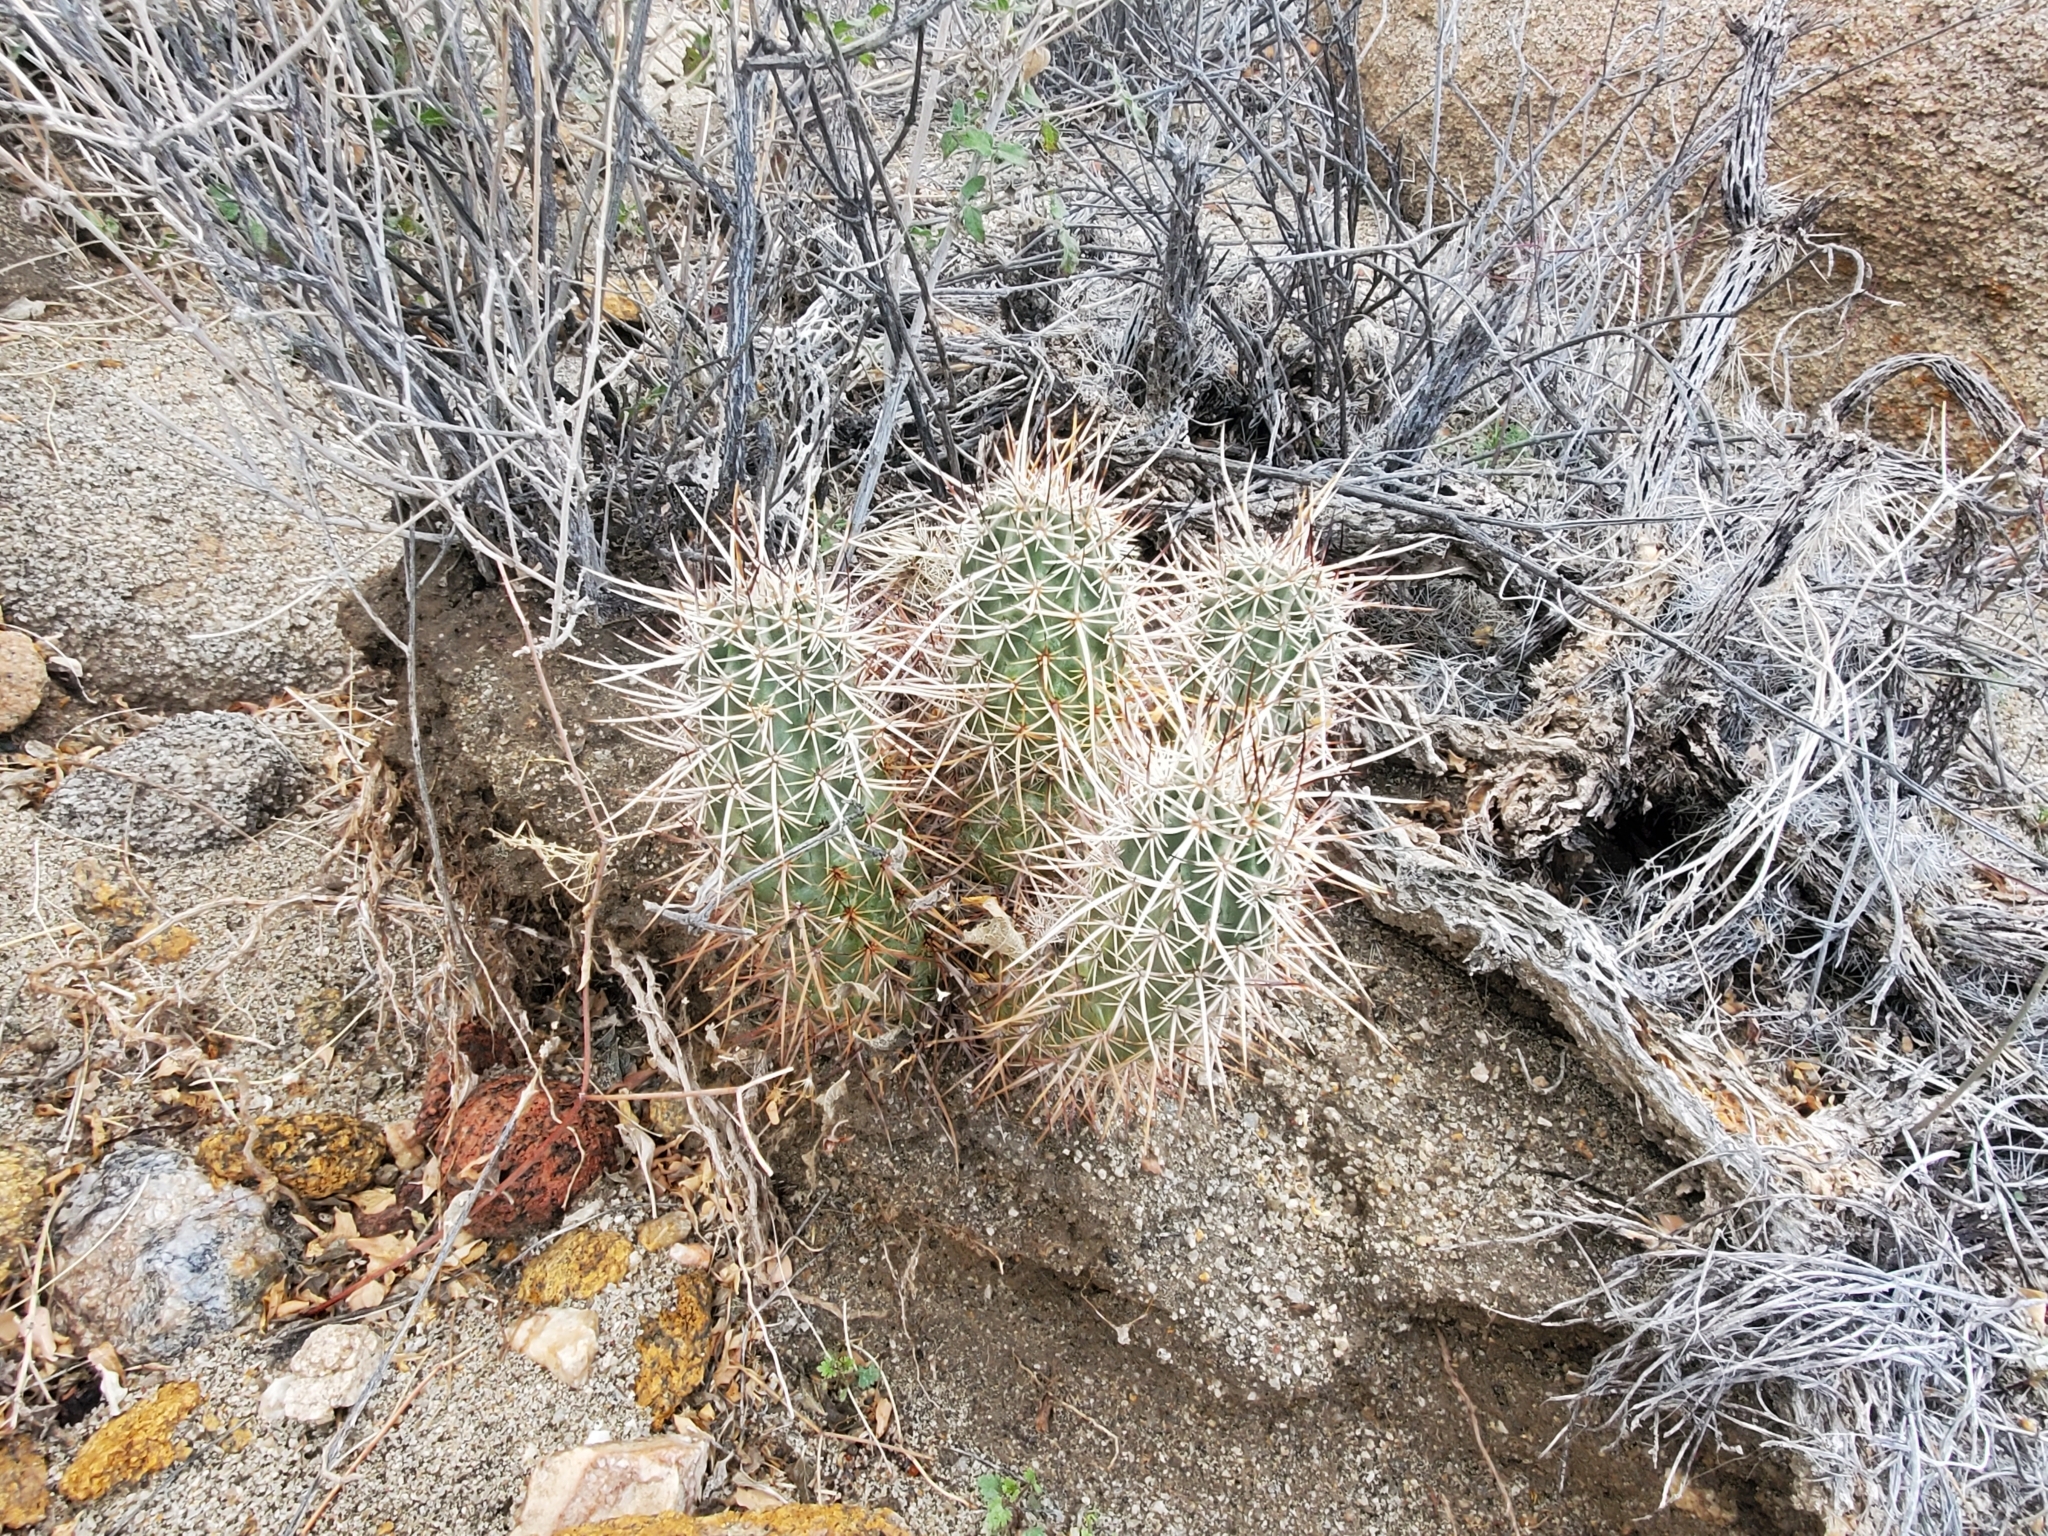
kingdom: Plantae
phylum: Tracheophyta
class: Magnoliopsida
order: Caryophyllales
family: Cactaceae
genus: Echinocereus
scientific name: Echinocereus engelmannii
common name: Engelmann's hedgehog cactus
